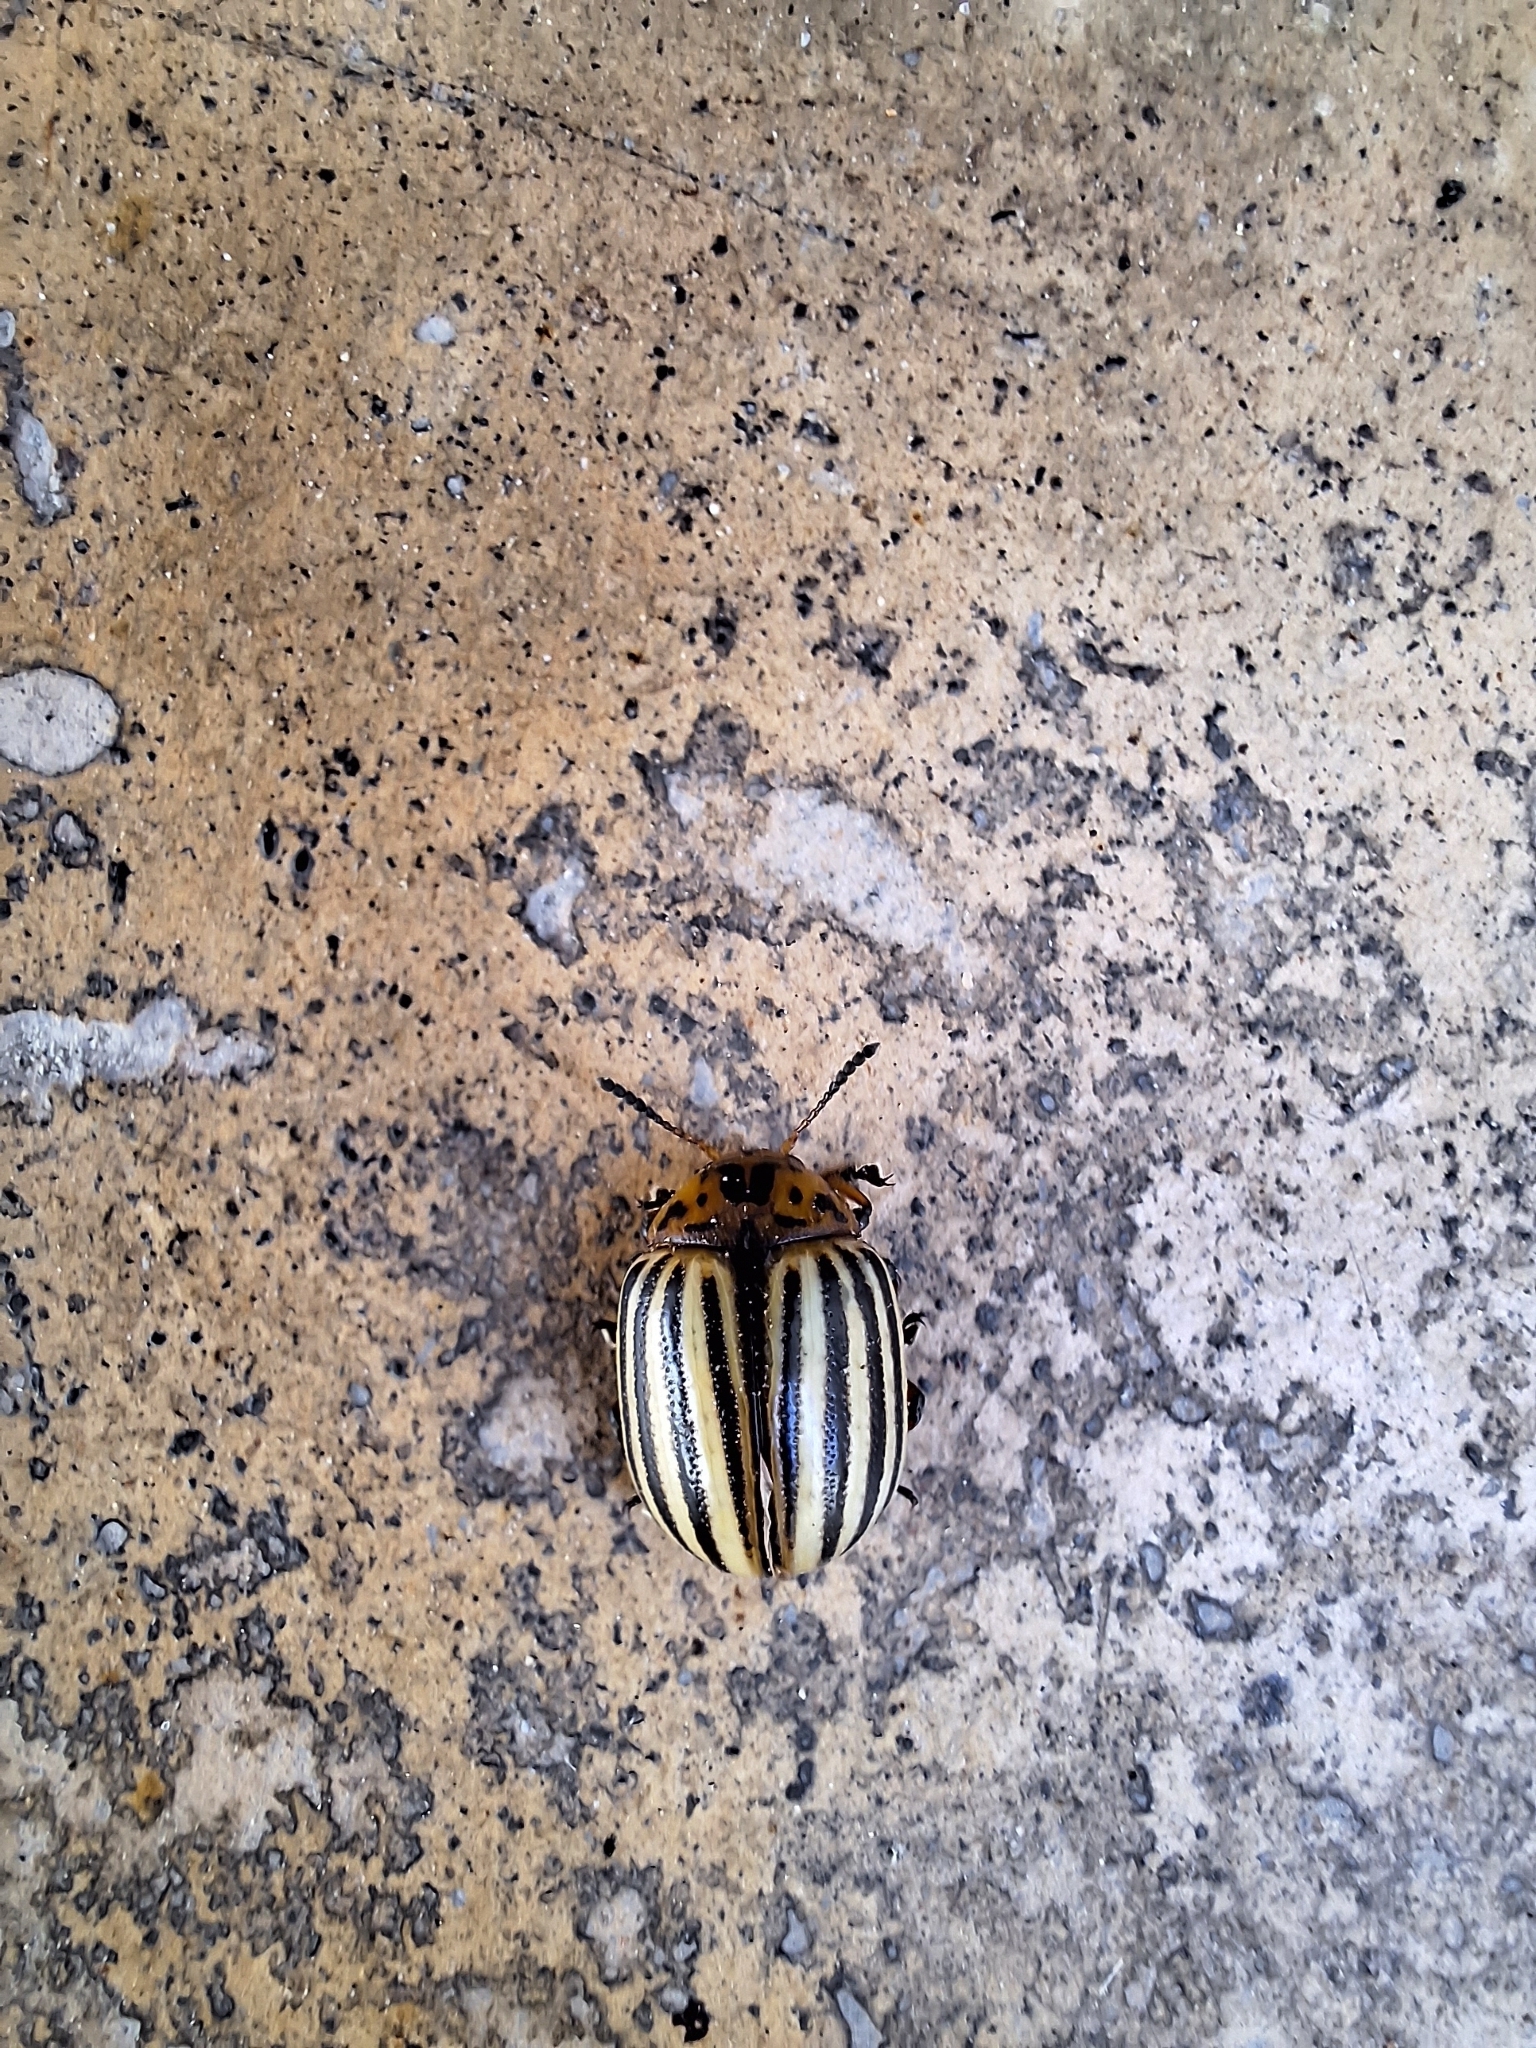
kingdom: Animalia
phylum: Arthropoda
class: Insecta
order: Coleoptera
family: Chrysomelidae
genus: Leptinotarsa
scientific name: Leptinotarsa decemlineata
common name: Colorado potato beetle
